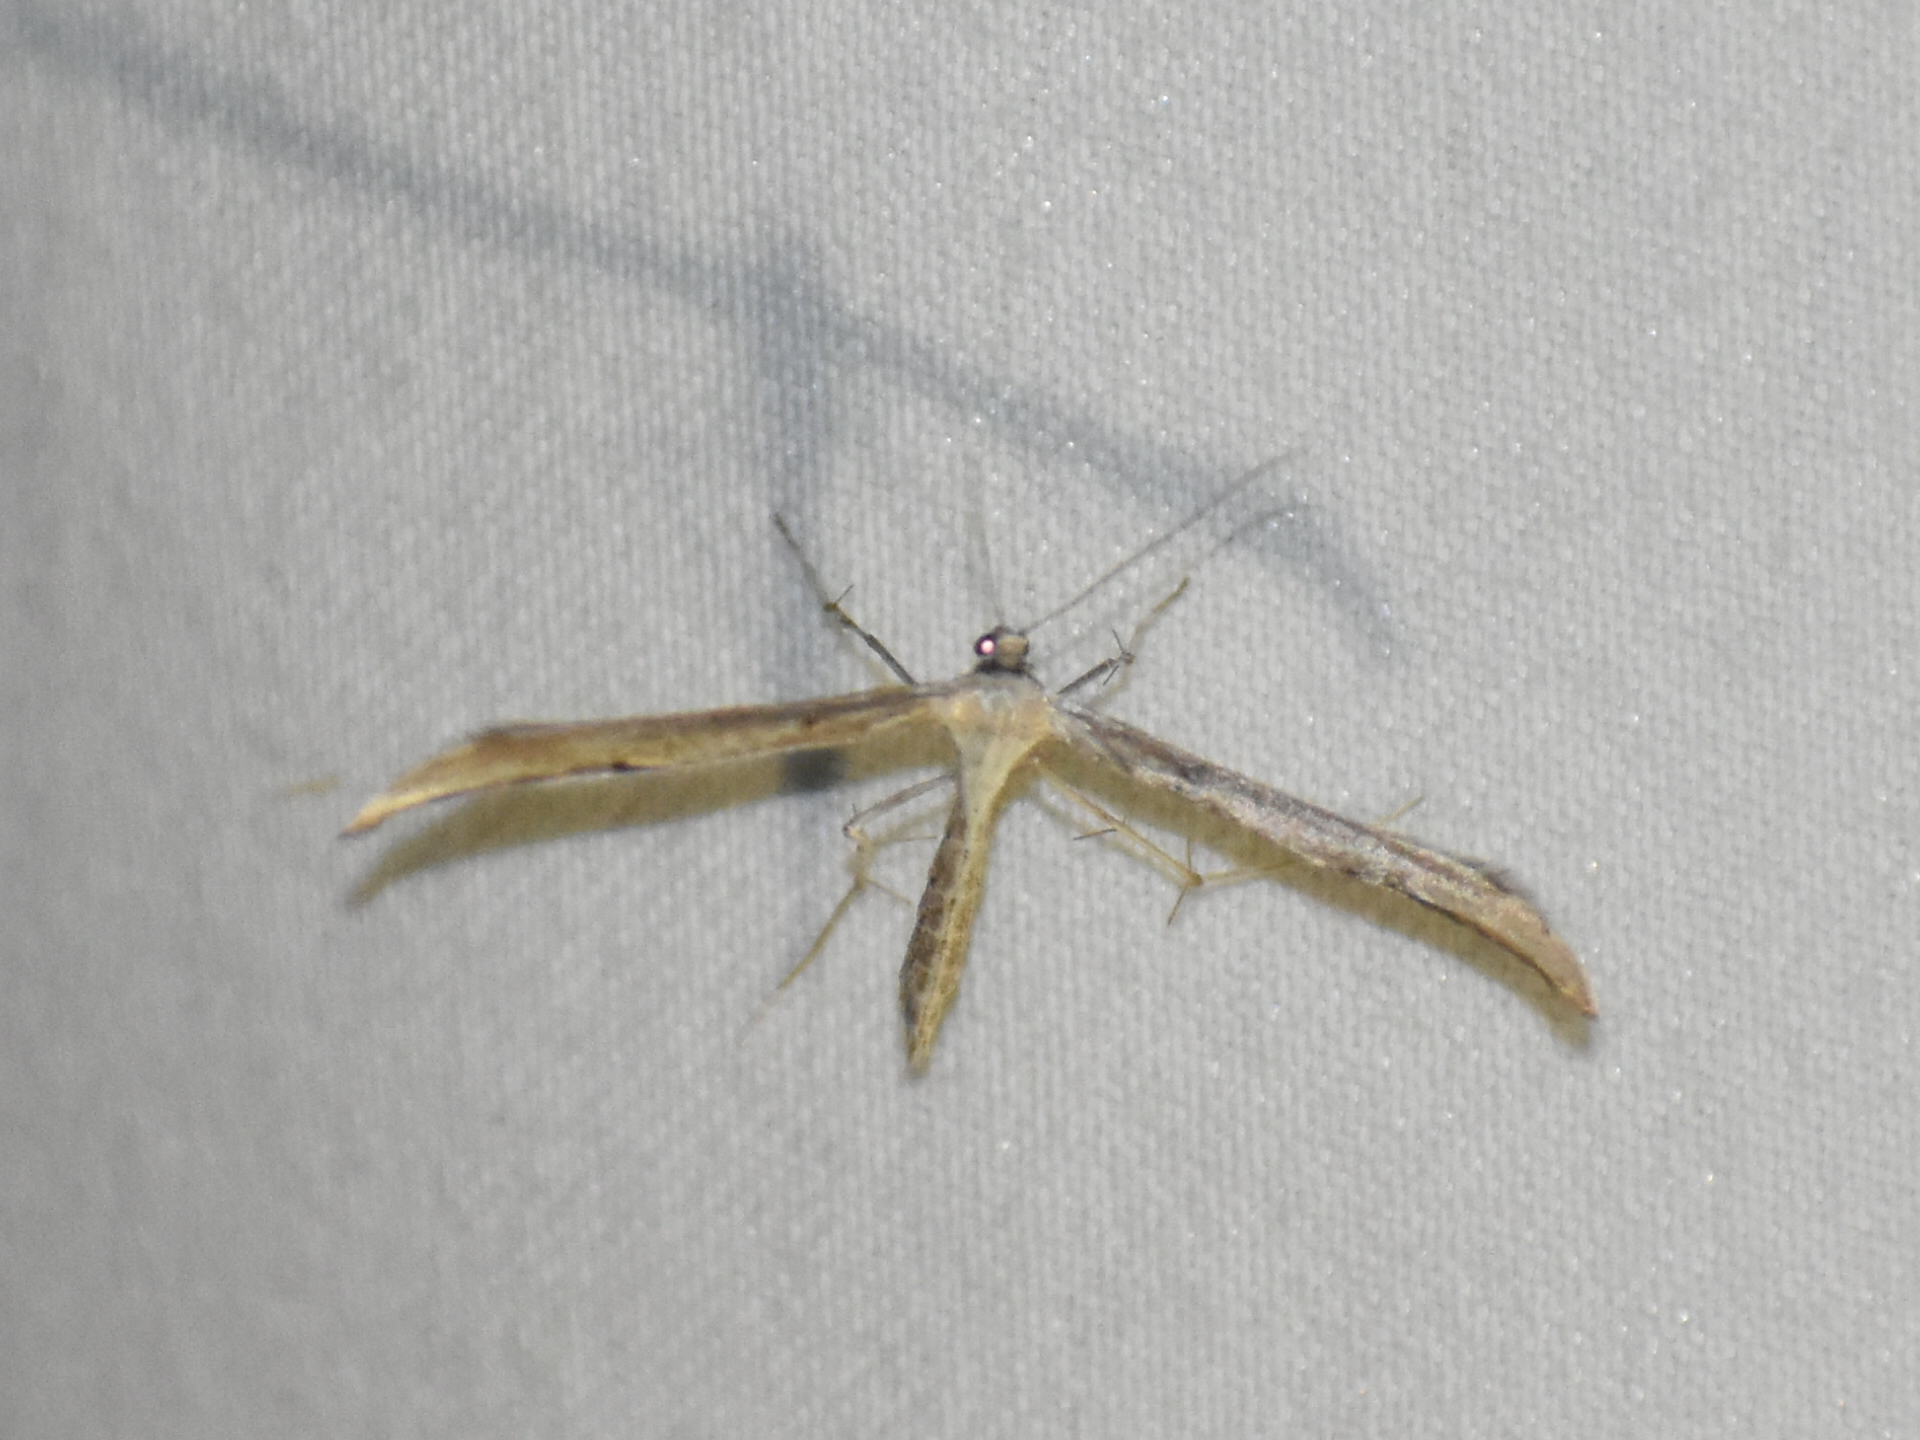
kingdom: Animalia
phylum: Arthropoda
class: Insecta
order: Lepidoptera
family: Pterophoridae
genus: Emmelina
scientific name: Emmelina monodactyla
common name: Common plume
